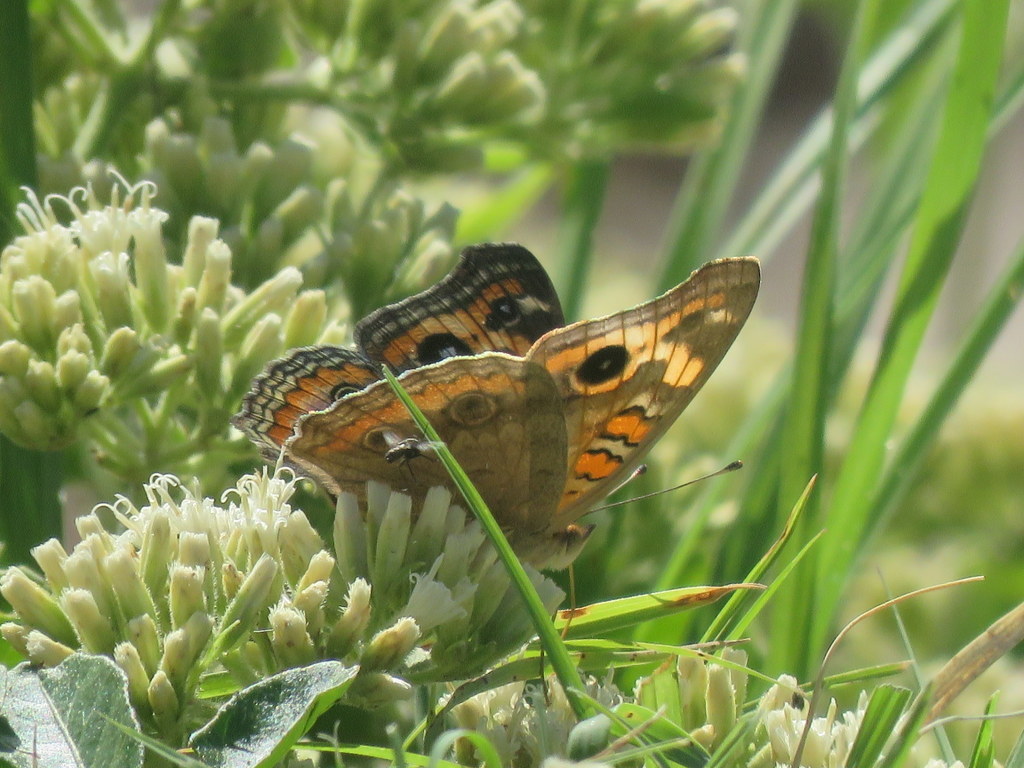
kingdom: Animalia
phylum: Arthropoda
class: Insecta
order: Lepidoptera
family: Nymphalidae
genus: Junonia
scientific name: Junonia lavinia
